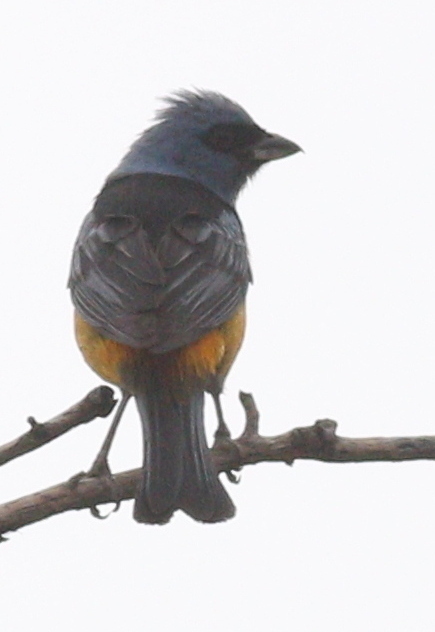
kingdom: Animalia
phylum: Chordata
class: Aves
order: Passeriformes
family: Thraupidae
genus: Rauenia
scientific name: Rauenia bonariensis
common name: Blue-and-yellow tanager
